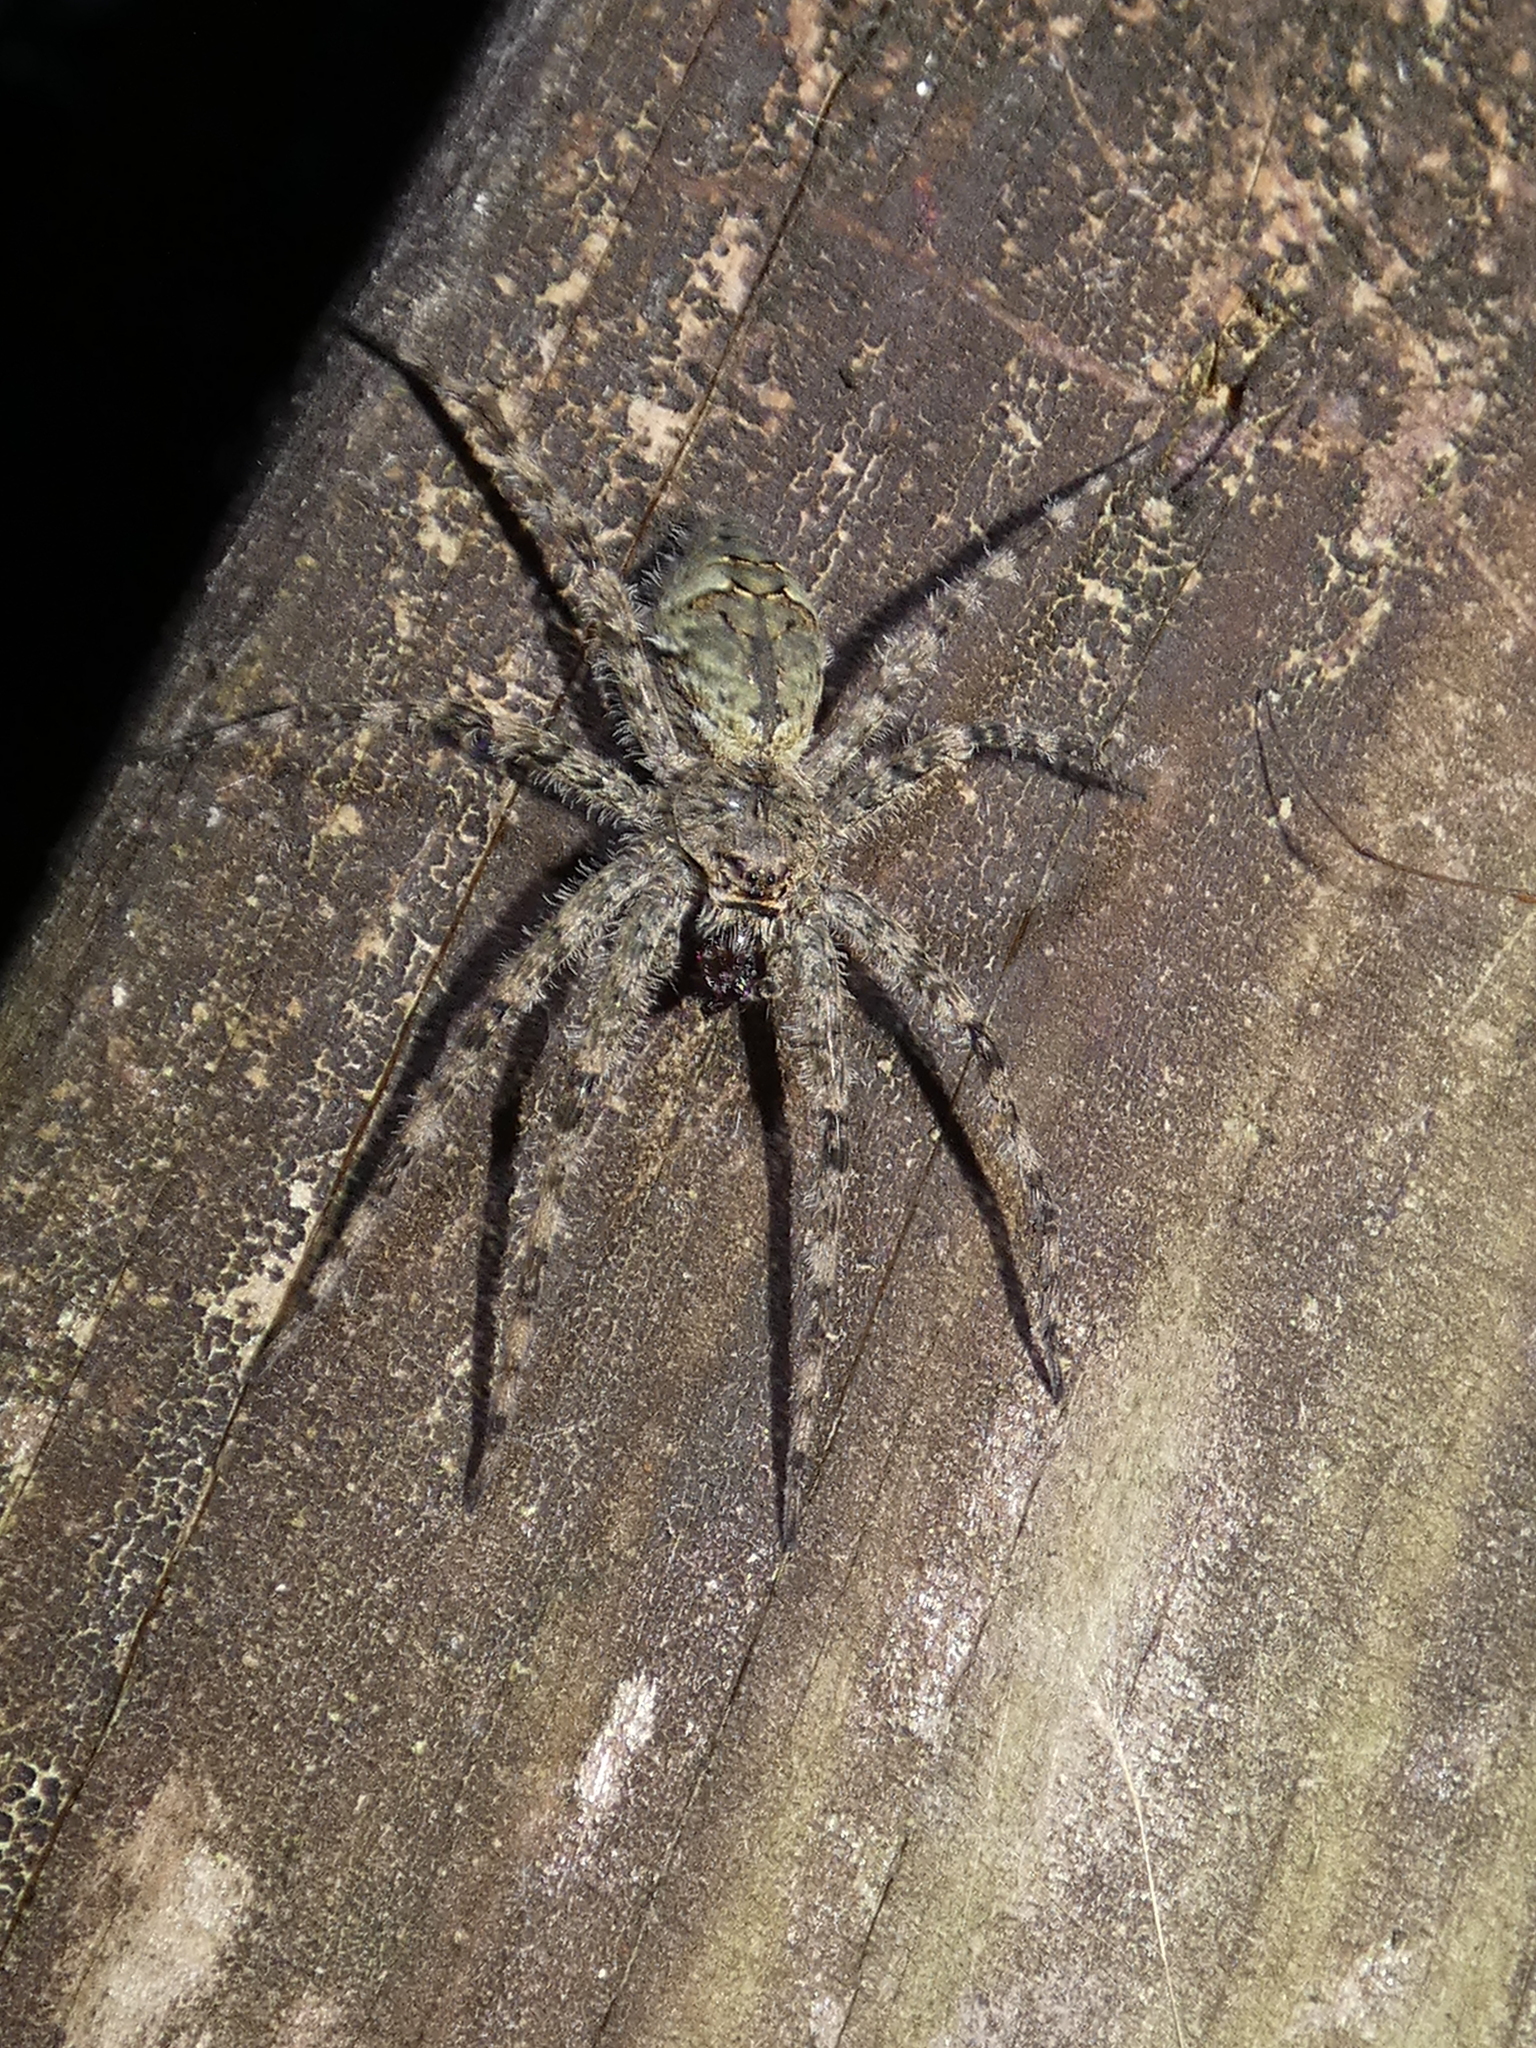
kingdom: Animalia
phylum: Arthropoda
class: Arachnida
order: Araneae
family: Pisauridae
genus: Dolomedes
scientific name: Dolomedes albineus
